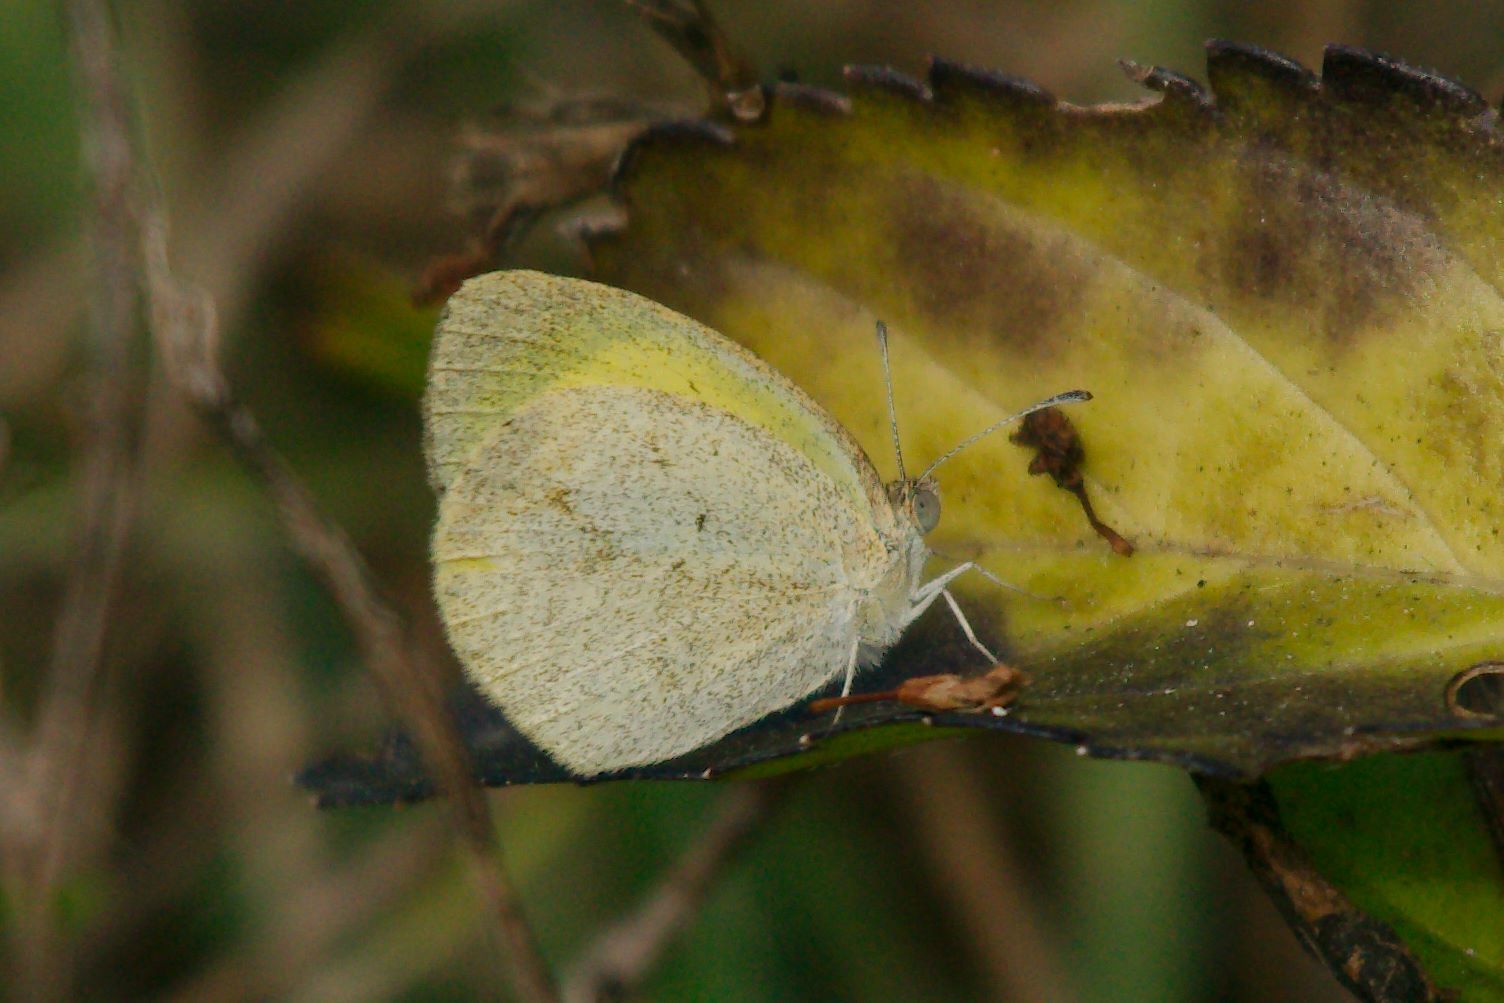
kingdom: Animalia
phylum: Arthropoda
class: Insecta
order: Lepidoptera
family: Pieridae
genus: Eurema
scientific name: Eurema daira
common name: Barred sulphur
